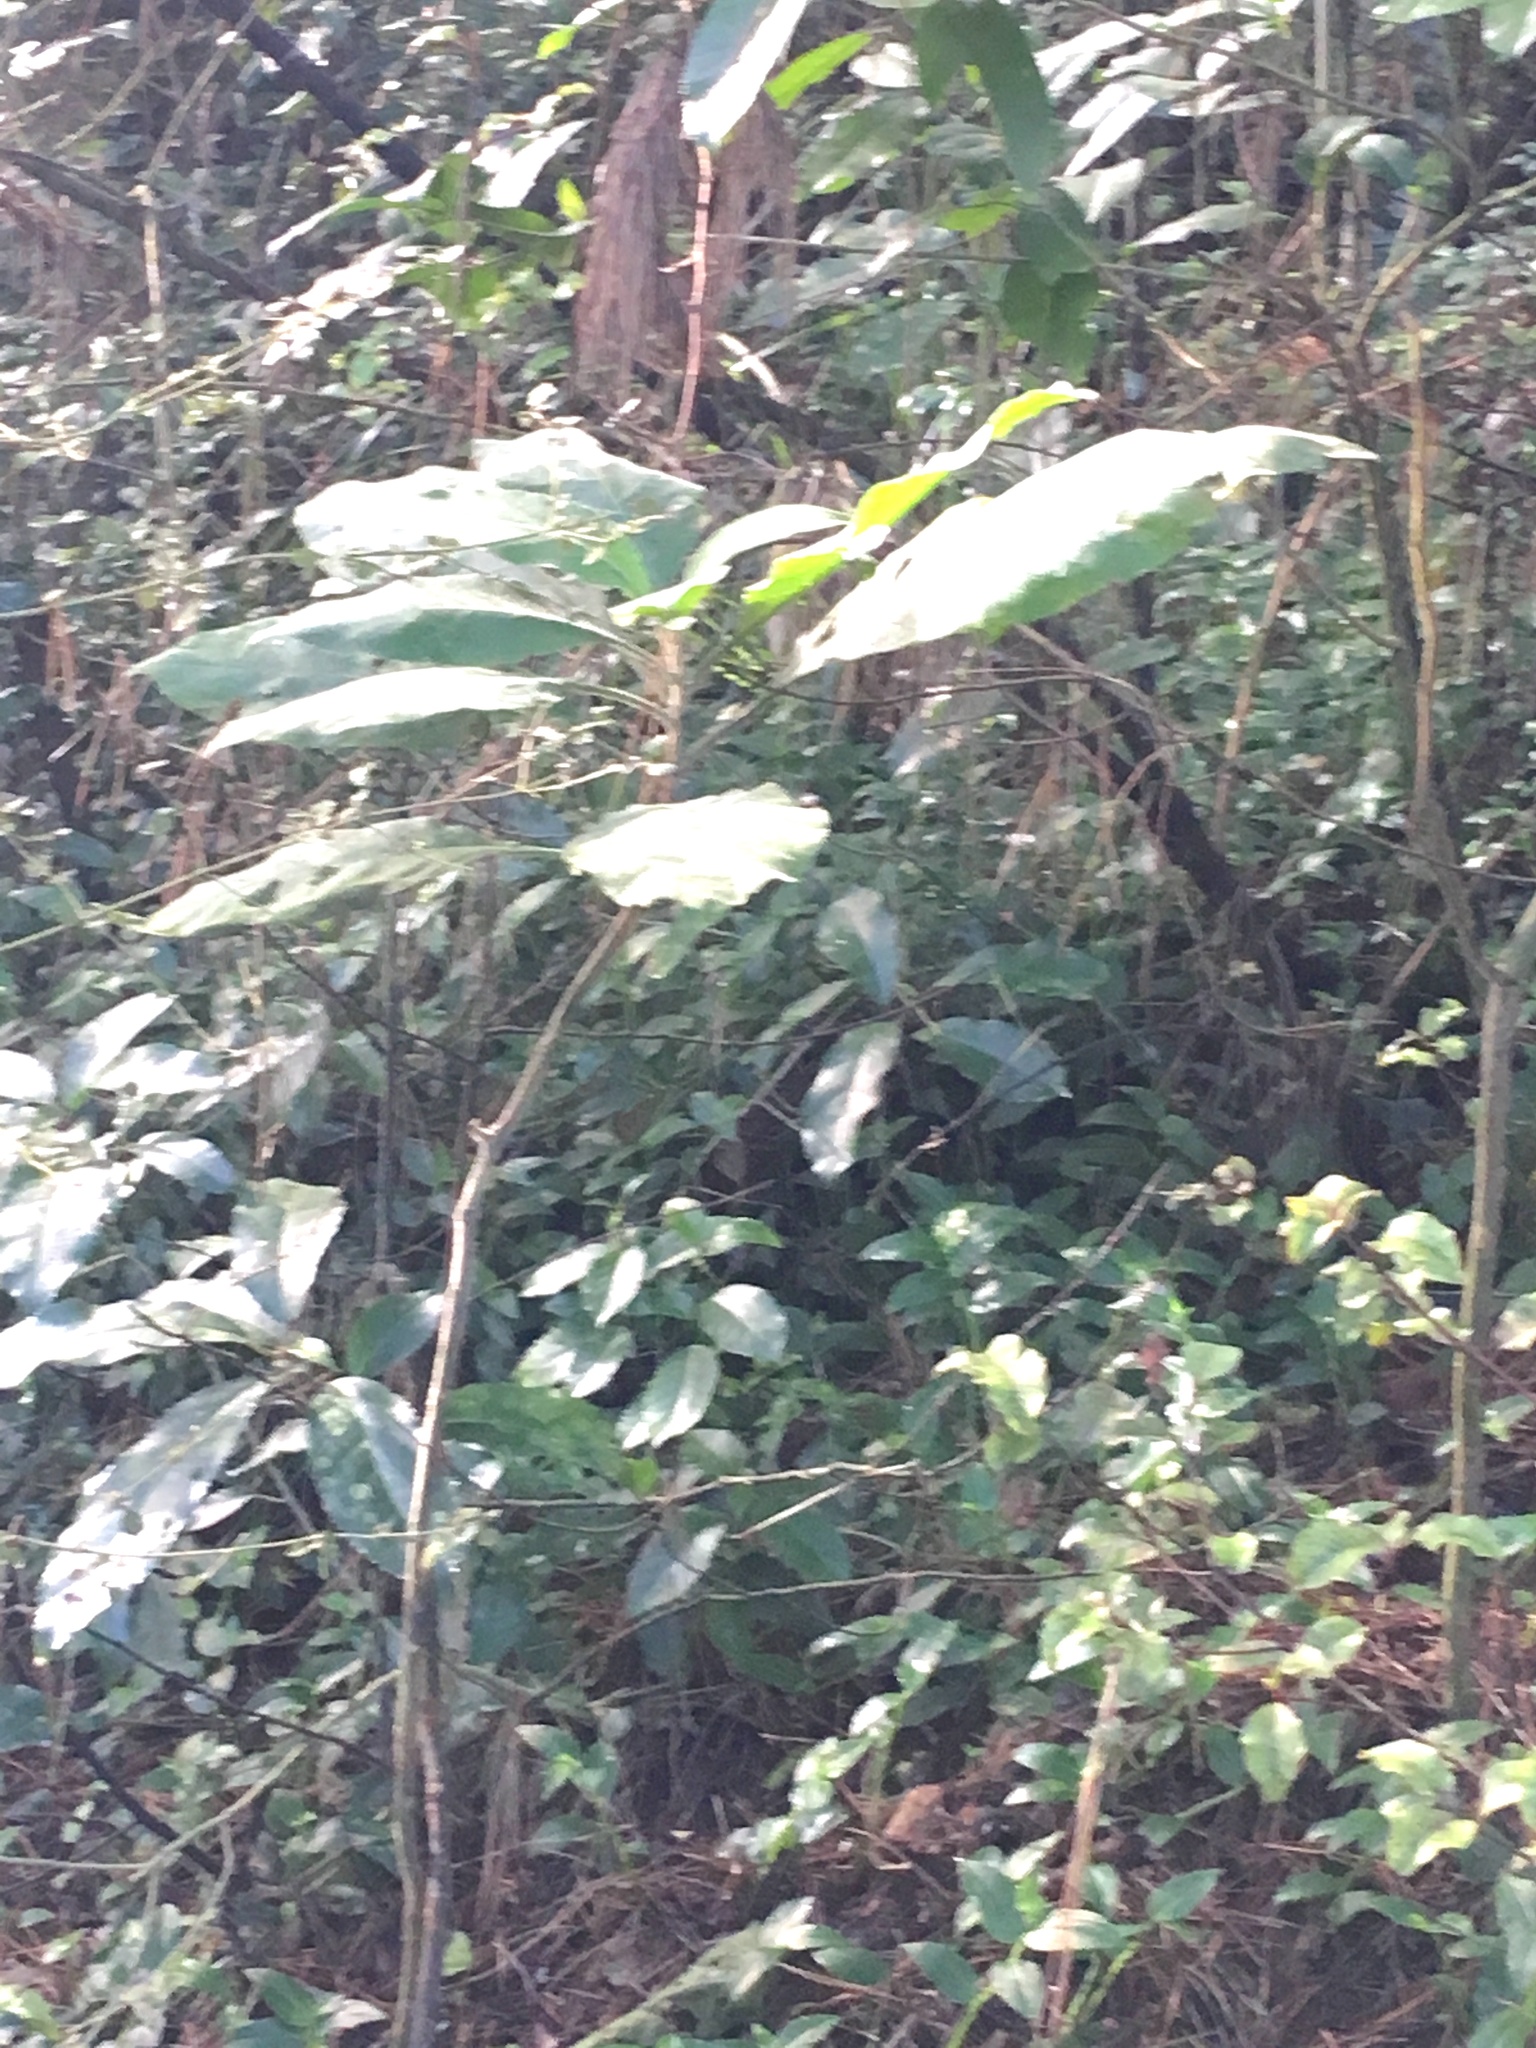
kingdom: Plantae
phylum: Tracheophyta
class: Magnoliopsida
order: Solanales
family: Solanaceae
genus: Solanum
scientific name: Solanum mauritianum
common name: Earleaf nightshade
